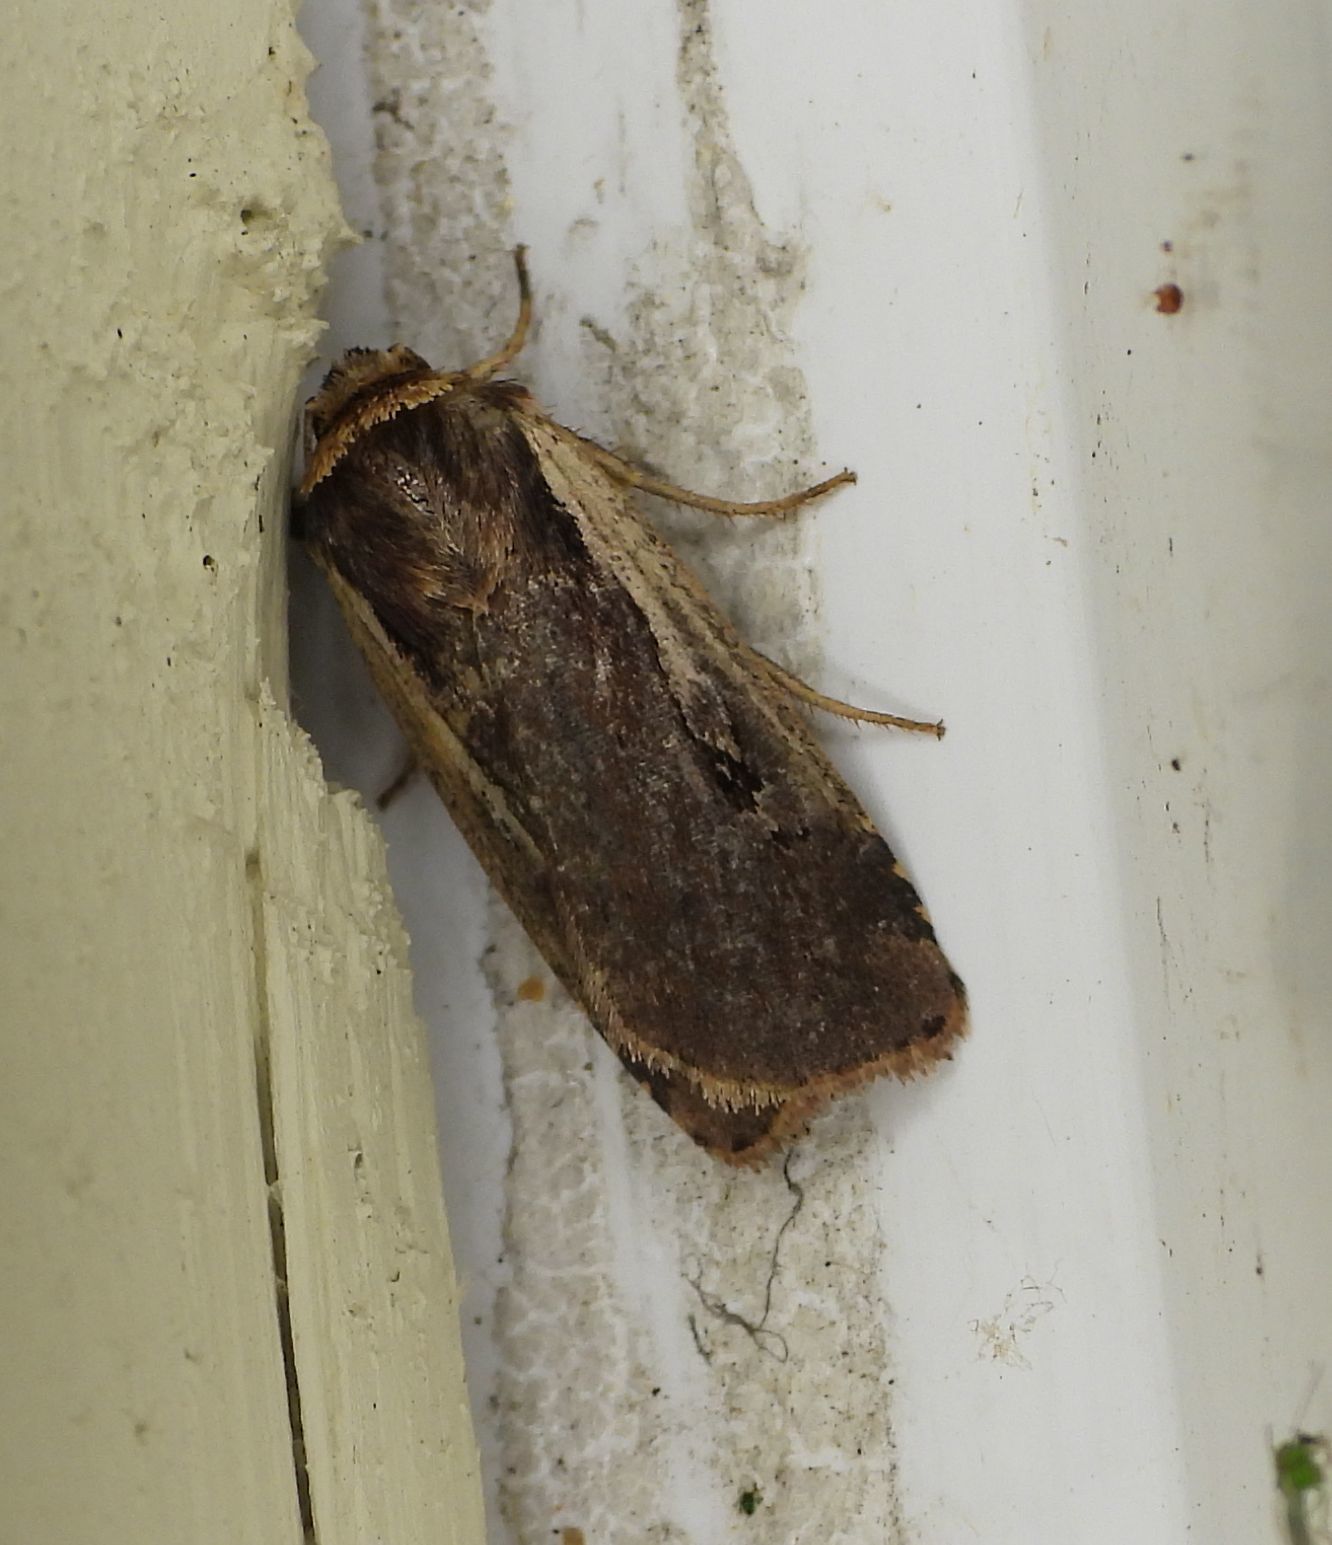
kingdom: Animalia
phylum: Arthropoda
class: Insecta
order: Lepidoptera
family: Noctuidae
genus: Ochropleura
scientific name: Ochropleura implecta
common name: Flame-shouldered dart
